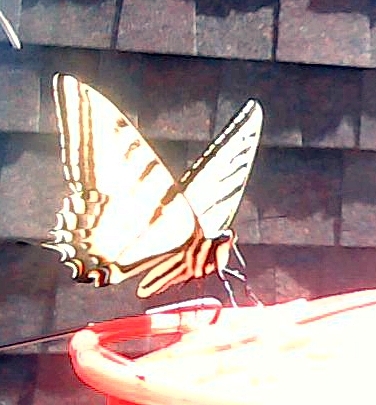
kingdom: Animalia
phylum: Arthropoda
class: Insecta
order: Lepidoptera
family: Papilionidae
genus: Papilio
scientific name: Papilio multicaudata
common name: Two-tailed tiger swallowtail
